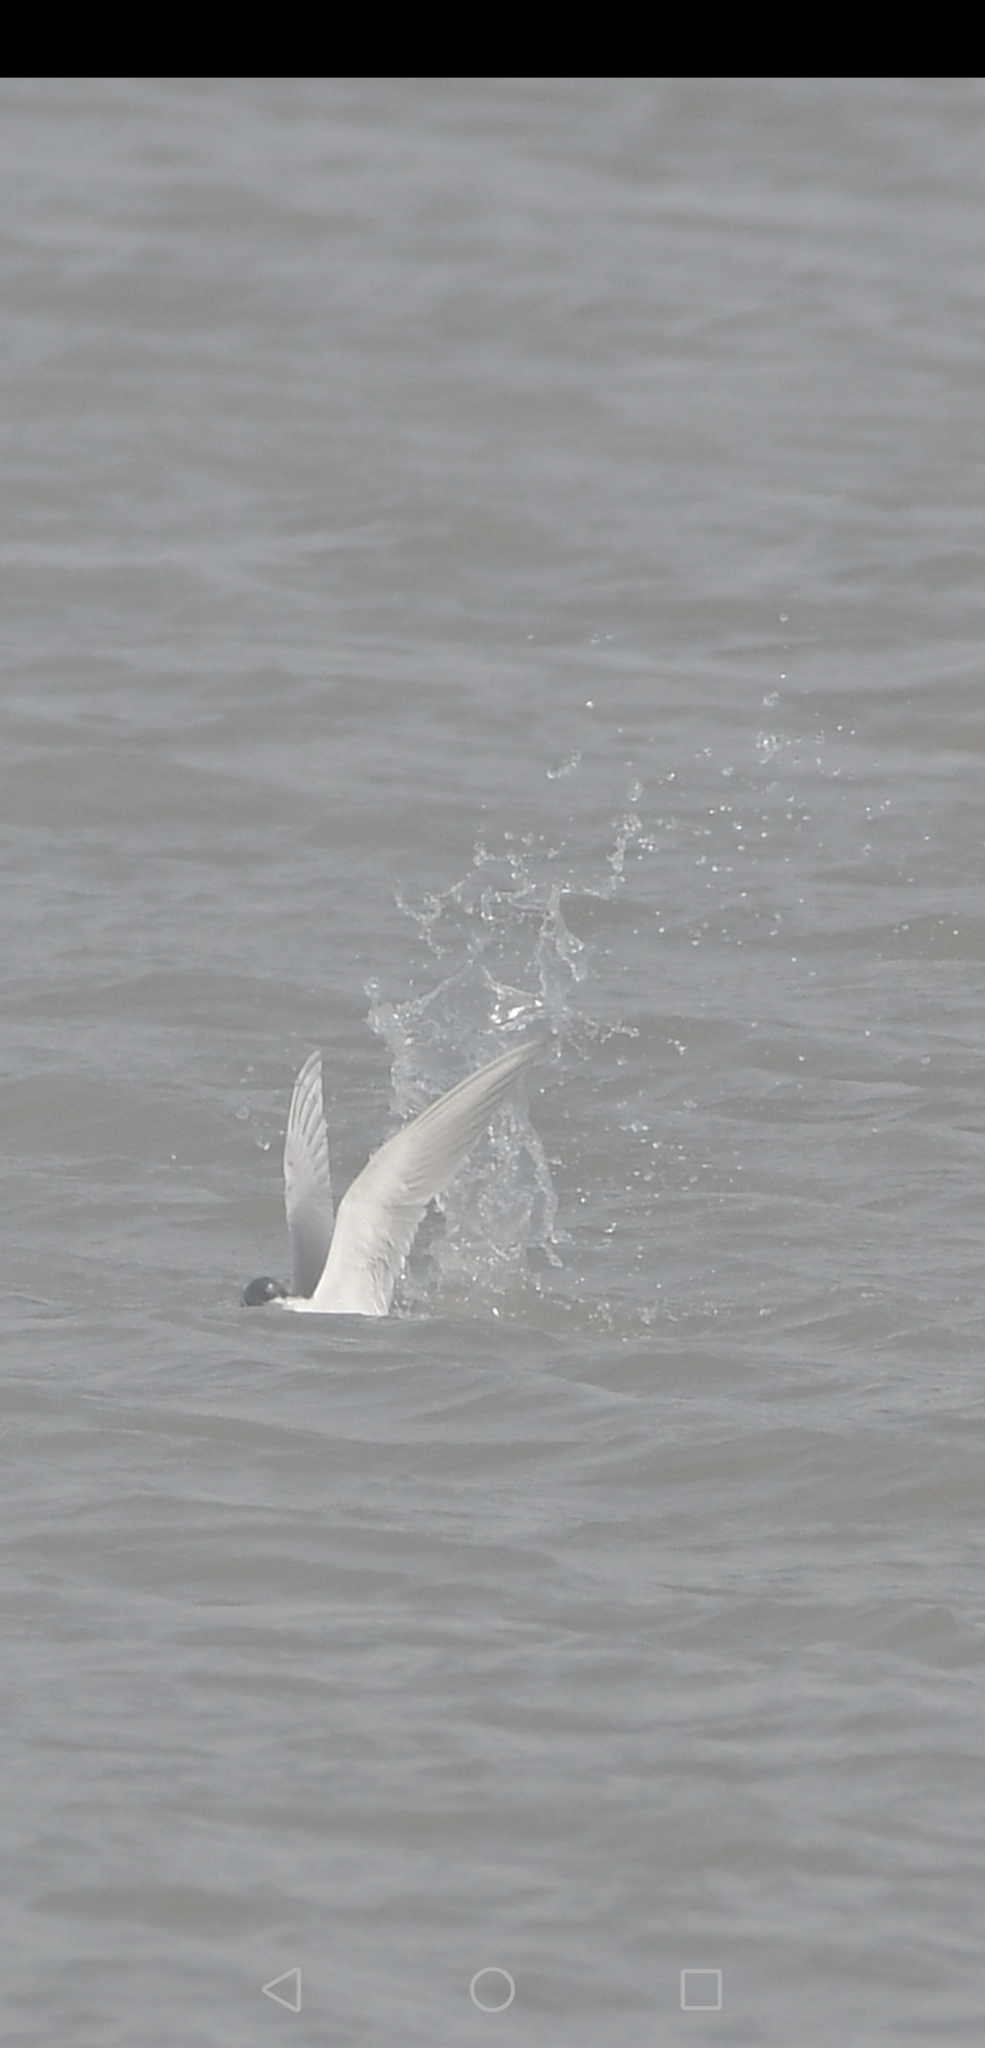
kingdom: Animalia
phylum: Chordata
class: Aves
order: Charadriiformes
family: Laridae
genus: Sterna
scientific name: Sterna forsteri
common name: Forster's tern
